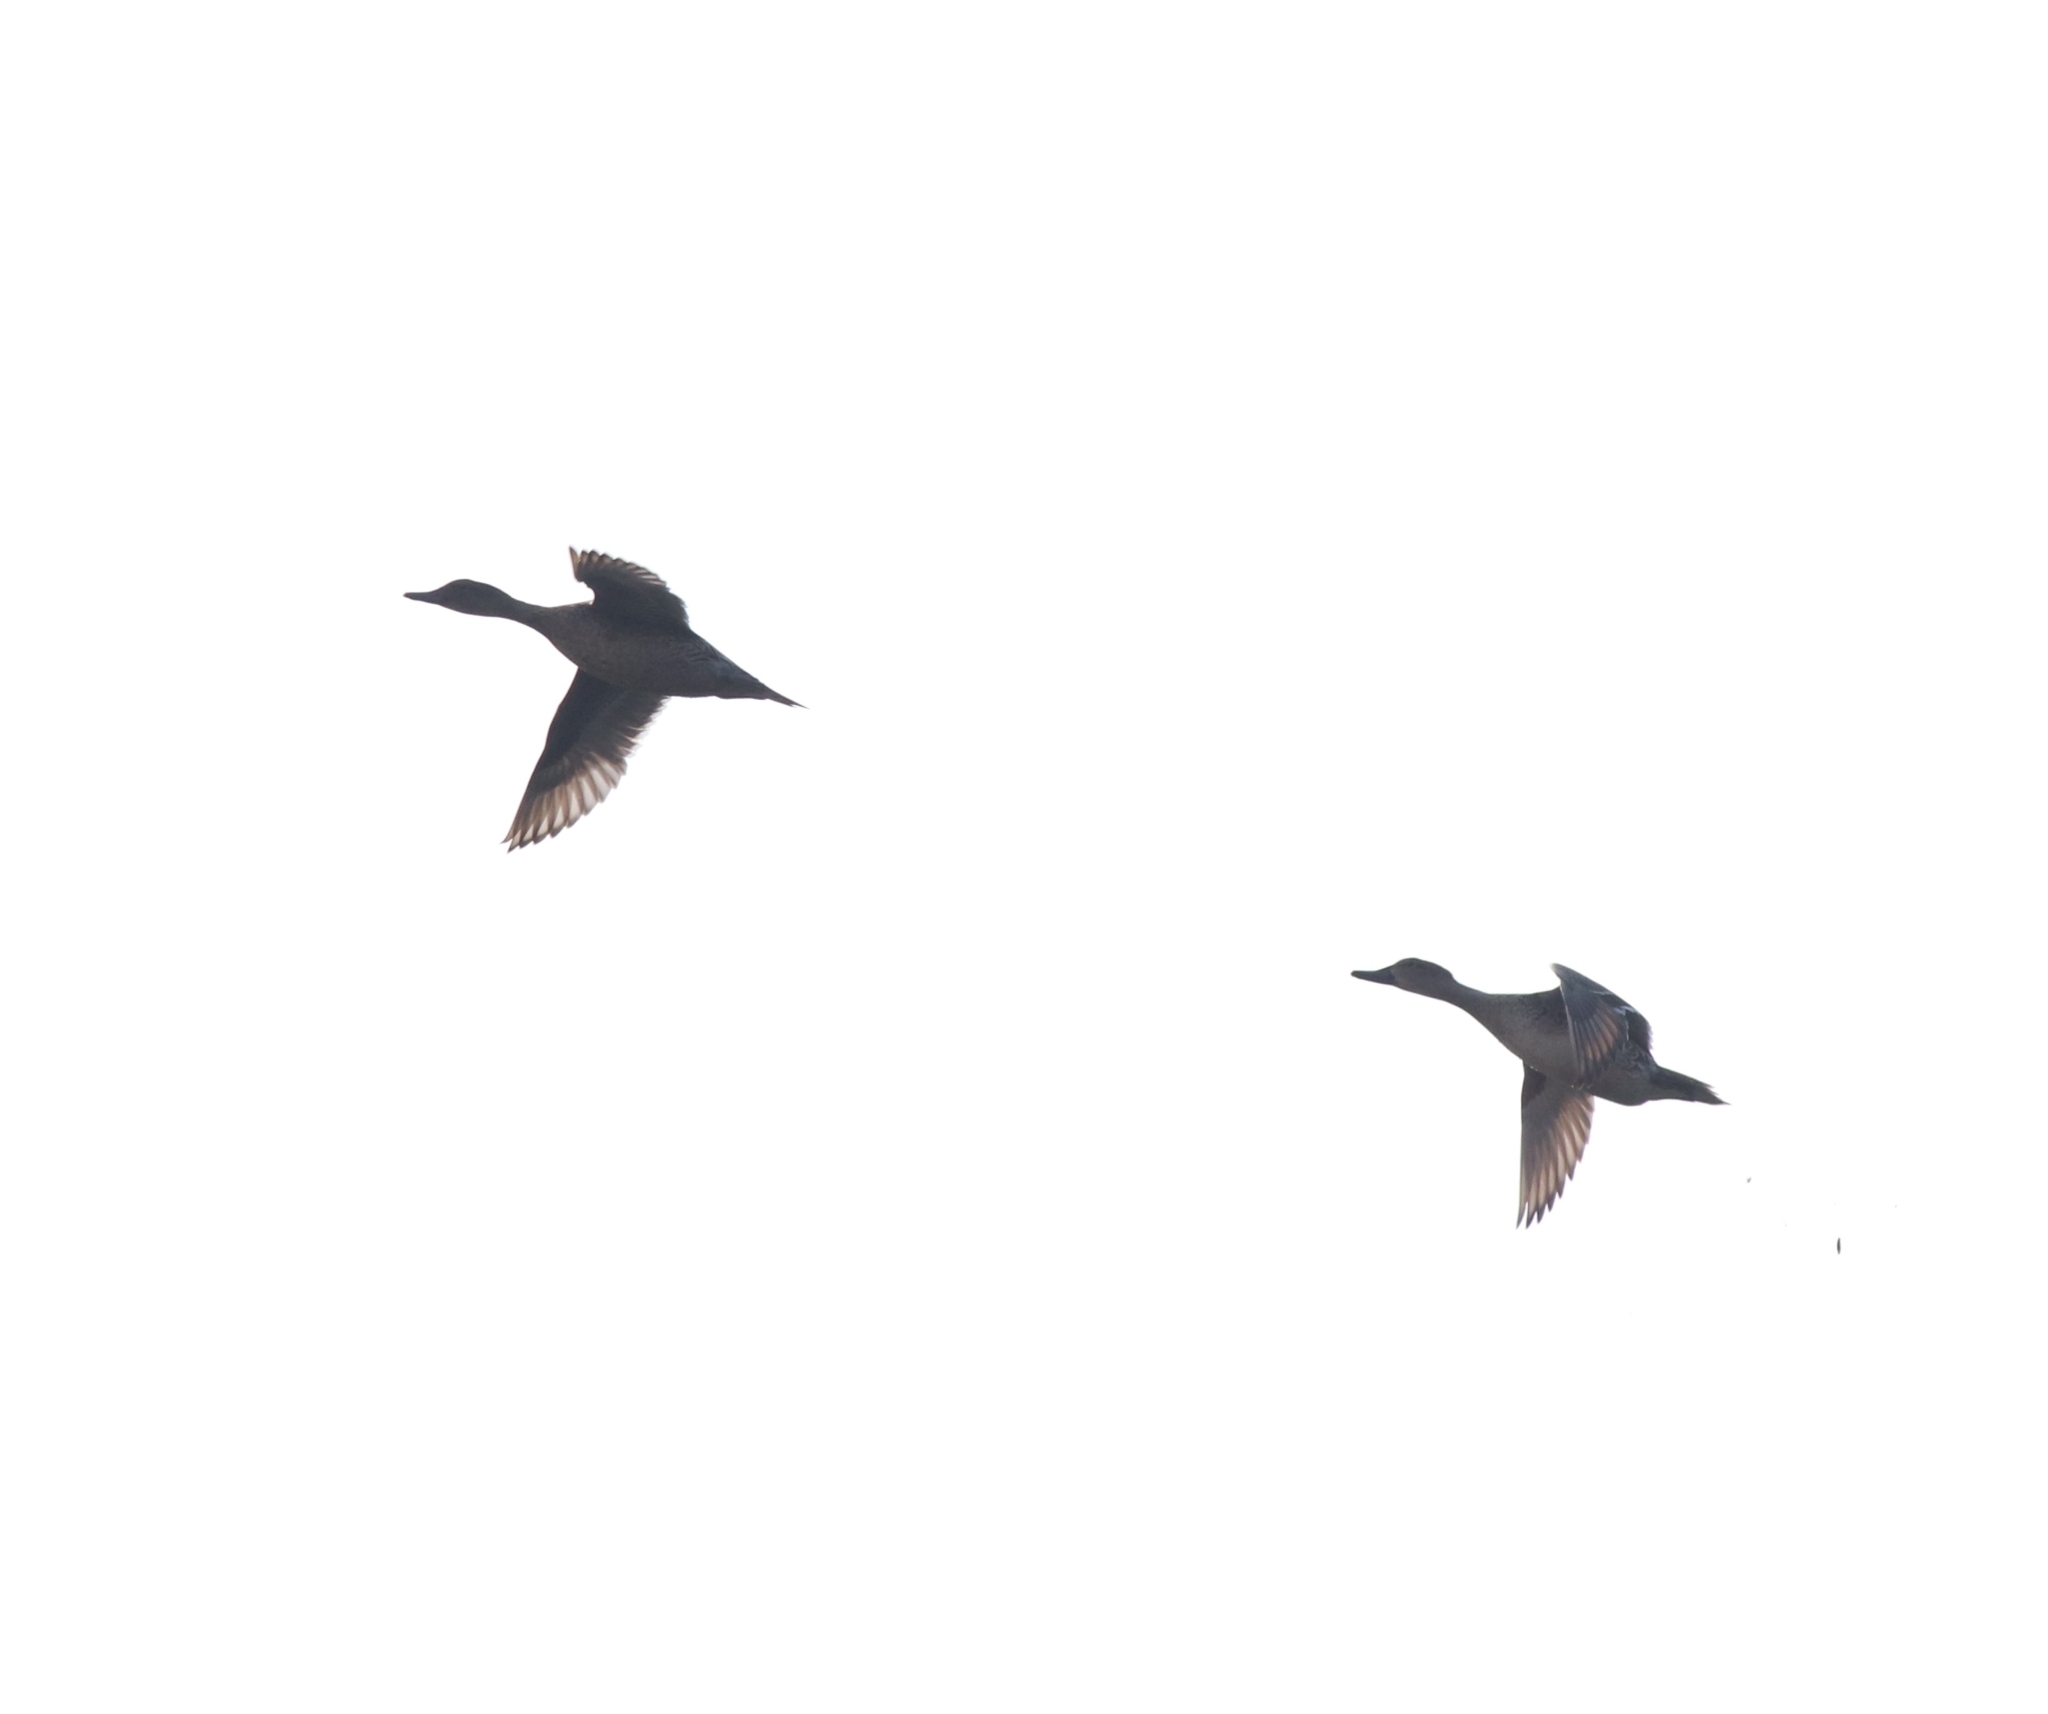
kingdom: Animalia
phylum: Chordata
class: Aves
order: Anseriformes
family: Anatidae
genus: Anas
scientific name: Anas acuta
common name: Northern pintail
